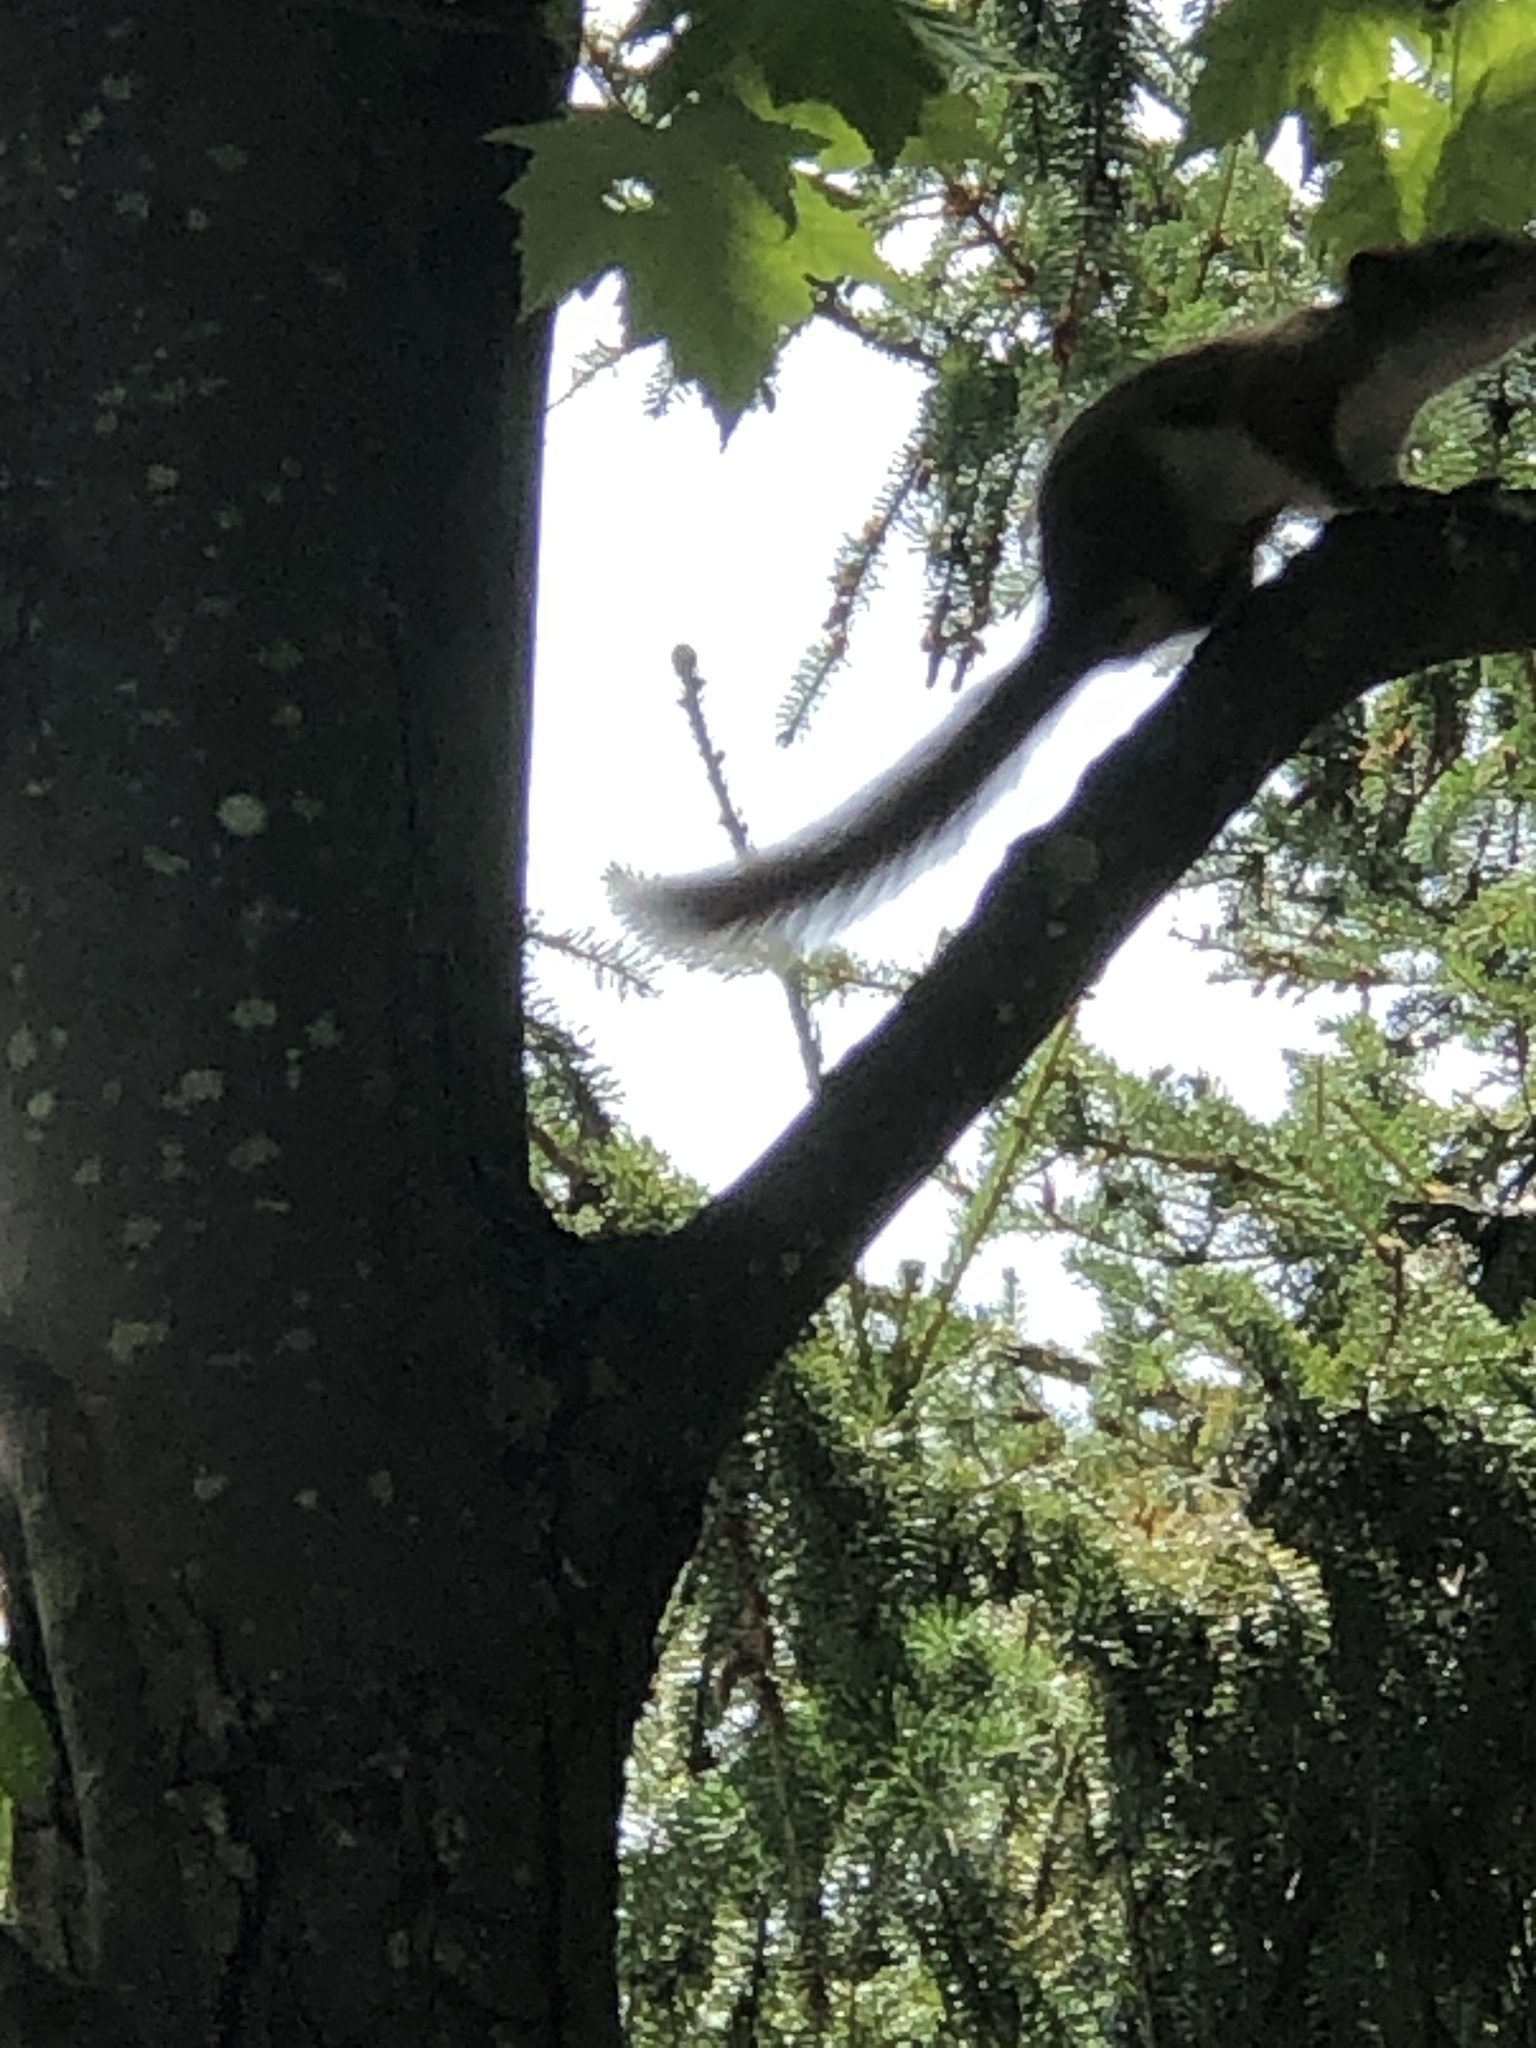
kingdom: Animalia
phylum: Chordata
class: Mammalia
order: Rodentia
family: Sciuridae
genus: Tamiasciurus
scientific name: Tamiasciurus hudsonicus
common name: Red squirrel
